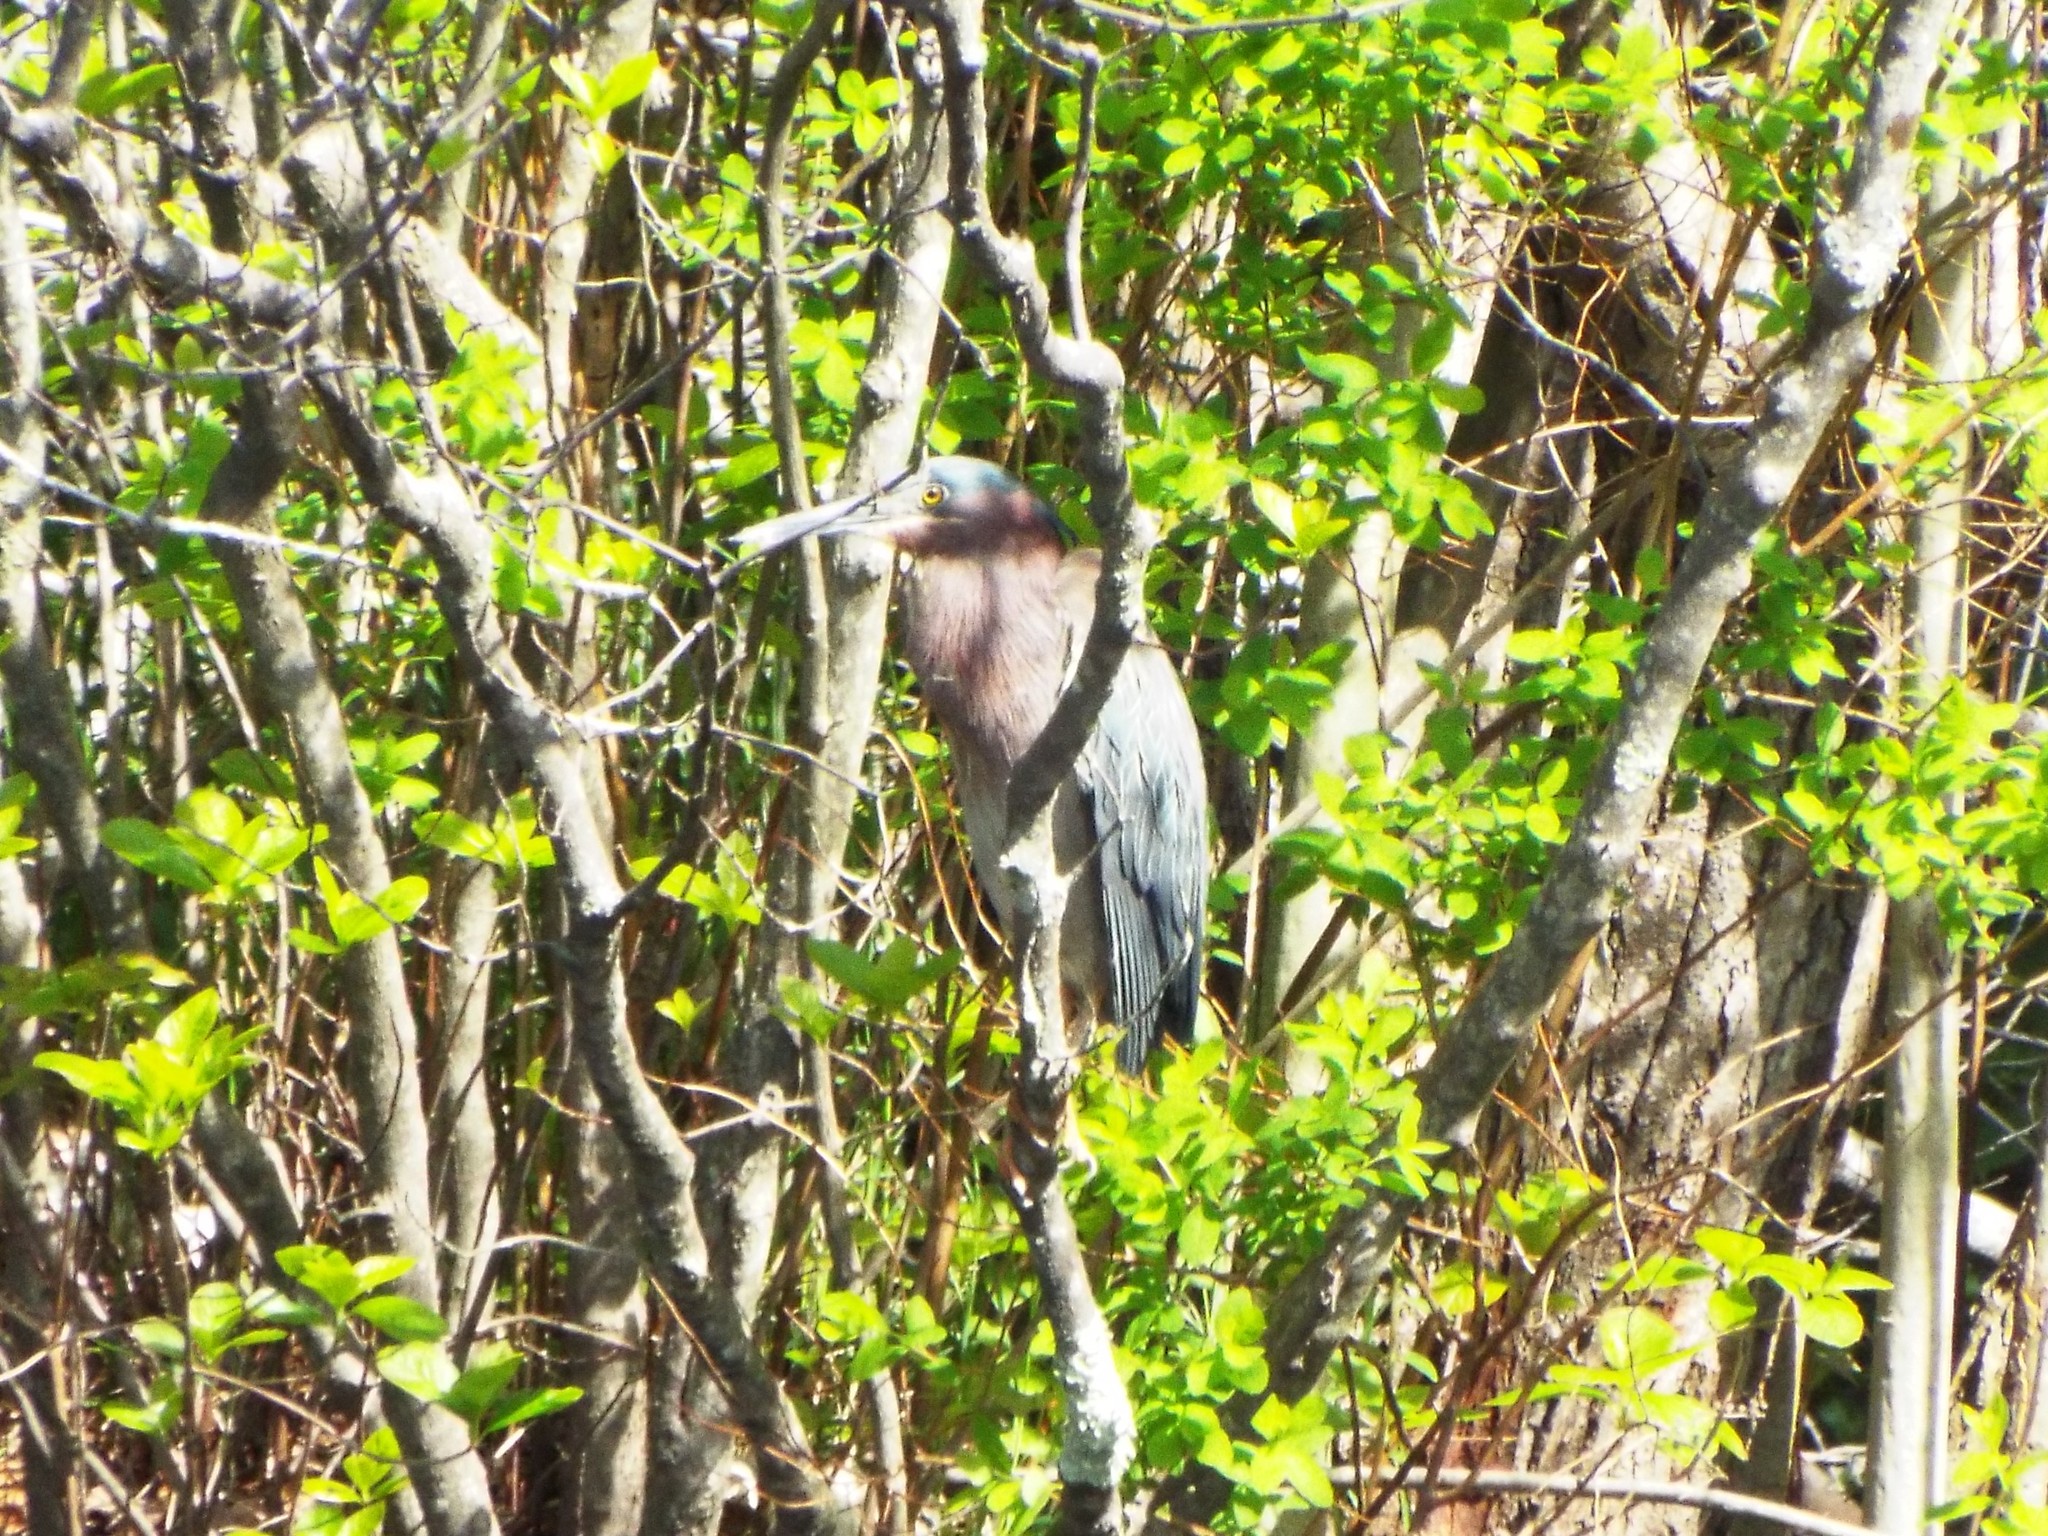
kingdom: Animalia
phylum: Chordata
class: Aves
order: Pelecaniformes
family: Ardeidae
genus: Butorides
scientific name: Butorides virescens
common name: Green heron
